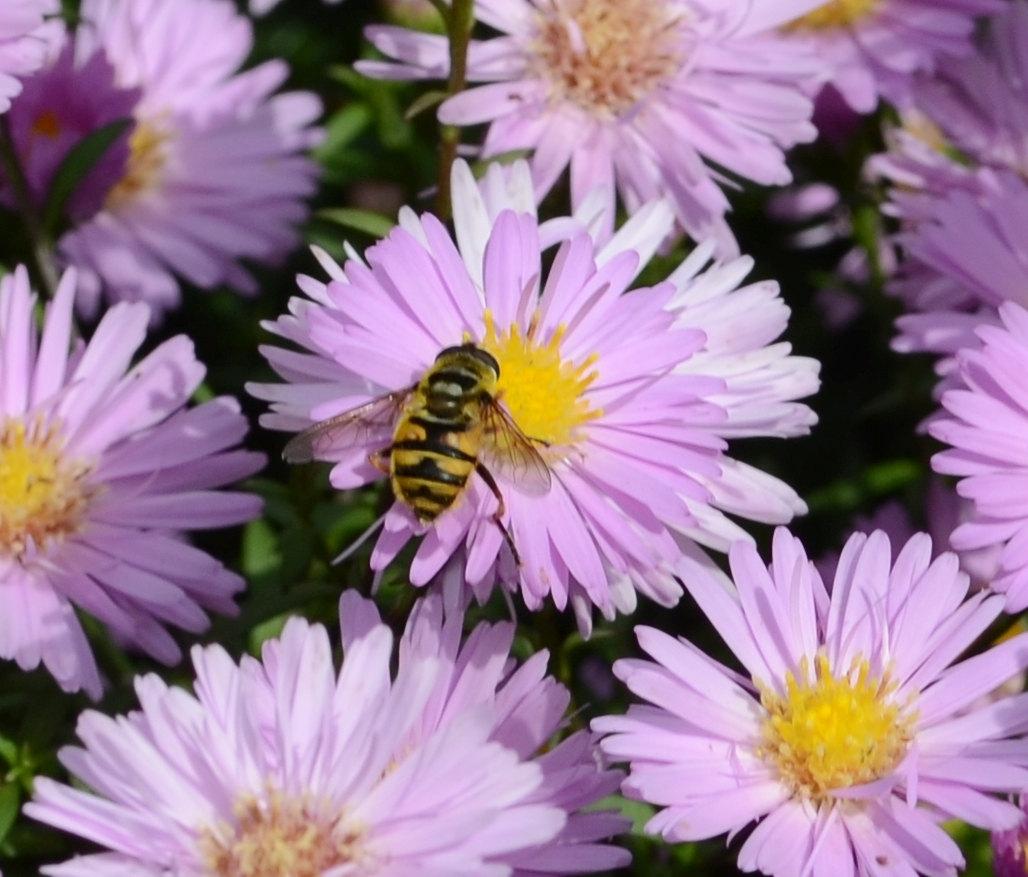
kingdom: Animalia
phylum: Arthropoda
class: Insecta
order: Diptera
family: Syrphidae
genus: Myathropa
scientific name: Myathropa florea
